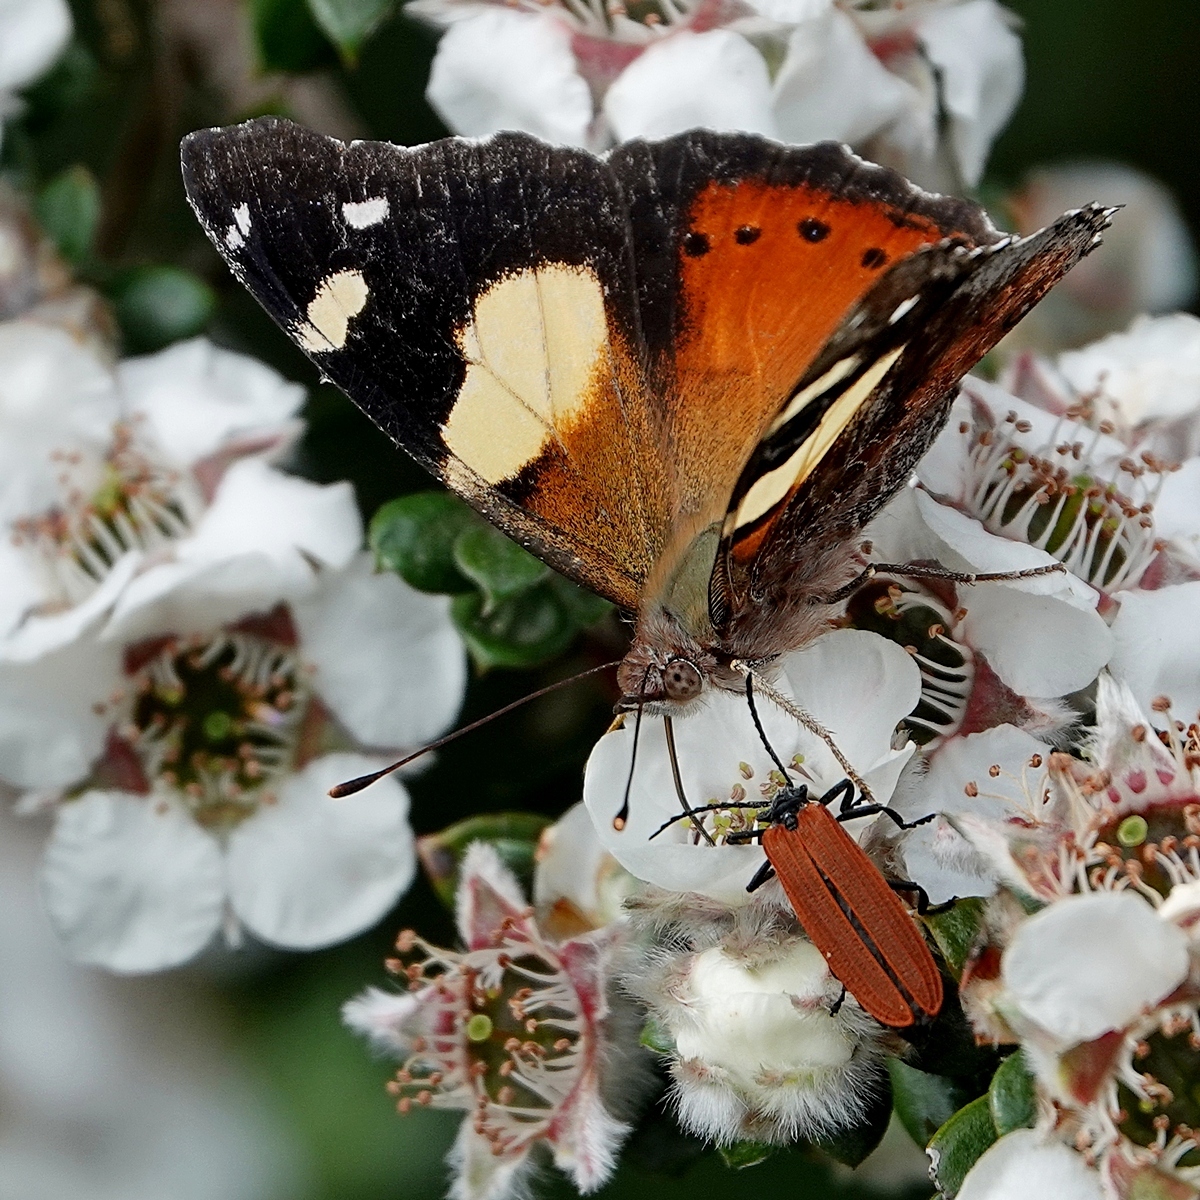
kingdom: Animalia
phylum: Arthropoda
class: Insecta
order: Lepidoptera
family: Nymphalidae
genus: Vanessa
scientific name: Vanessa itea
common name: Yellow admiral
